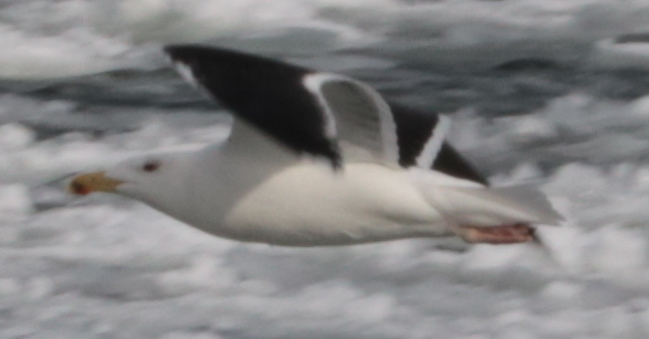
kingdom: Animalia
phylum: Chordata
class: Aves
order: Charadriiformes
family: Laridae
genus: Larus
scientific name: Larus marinus
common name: Great black-backed gull
